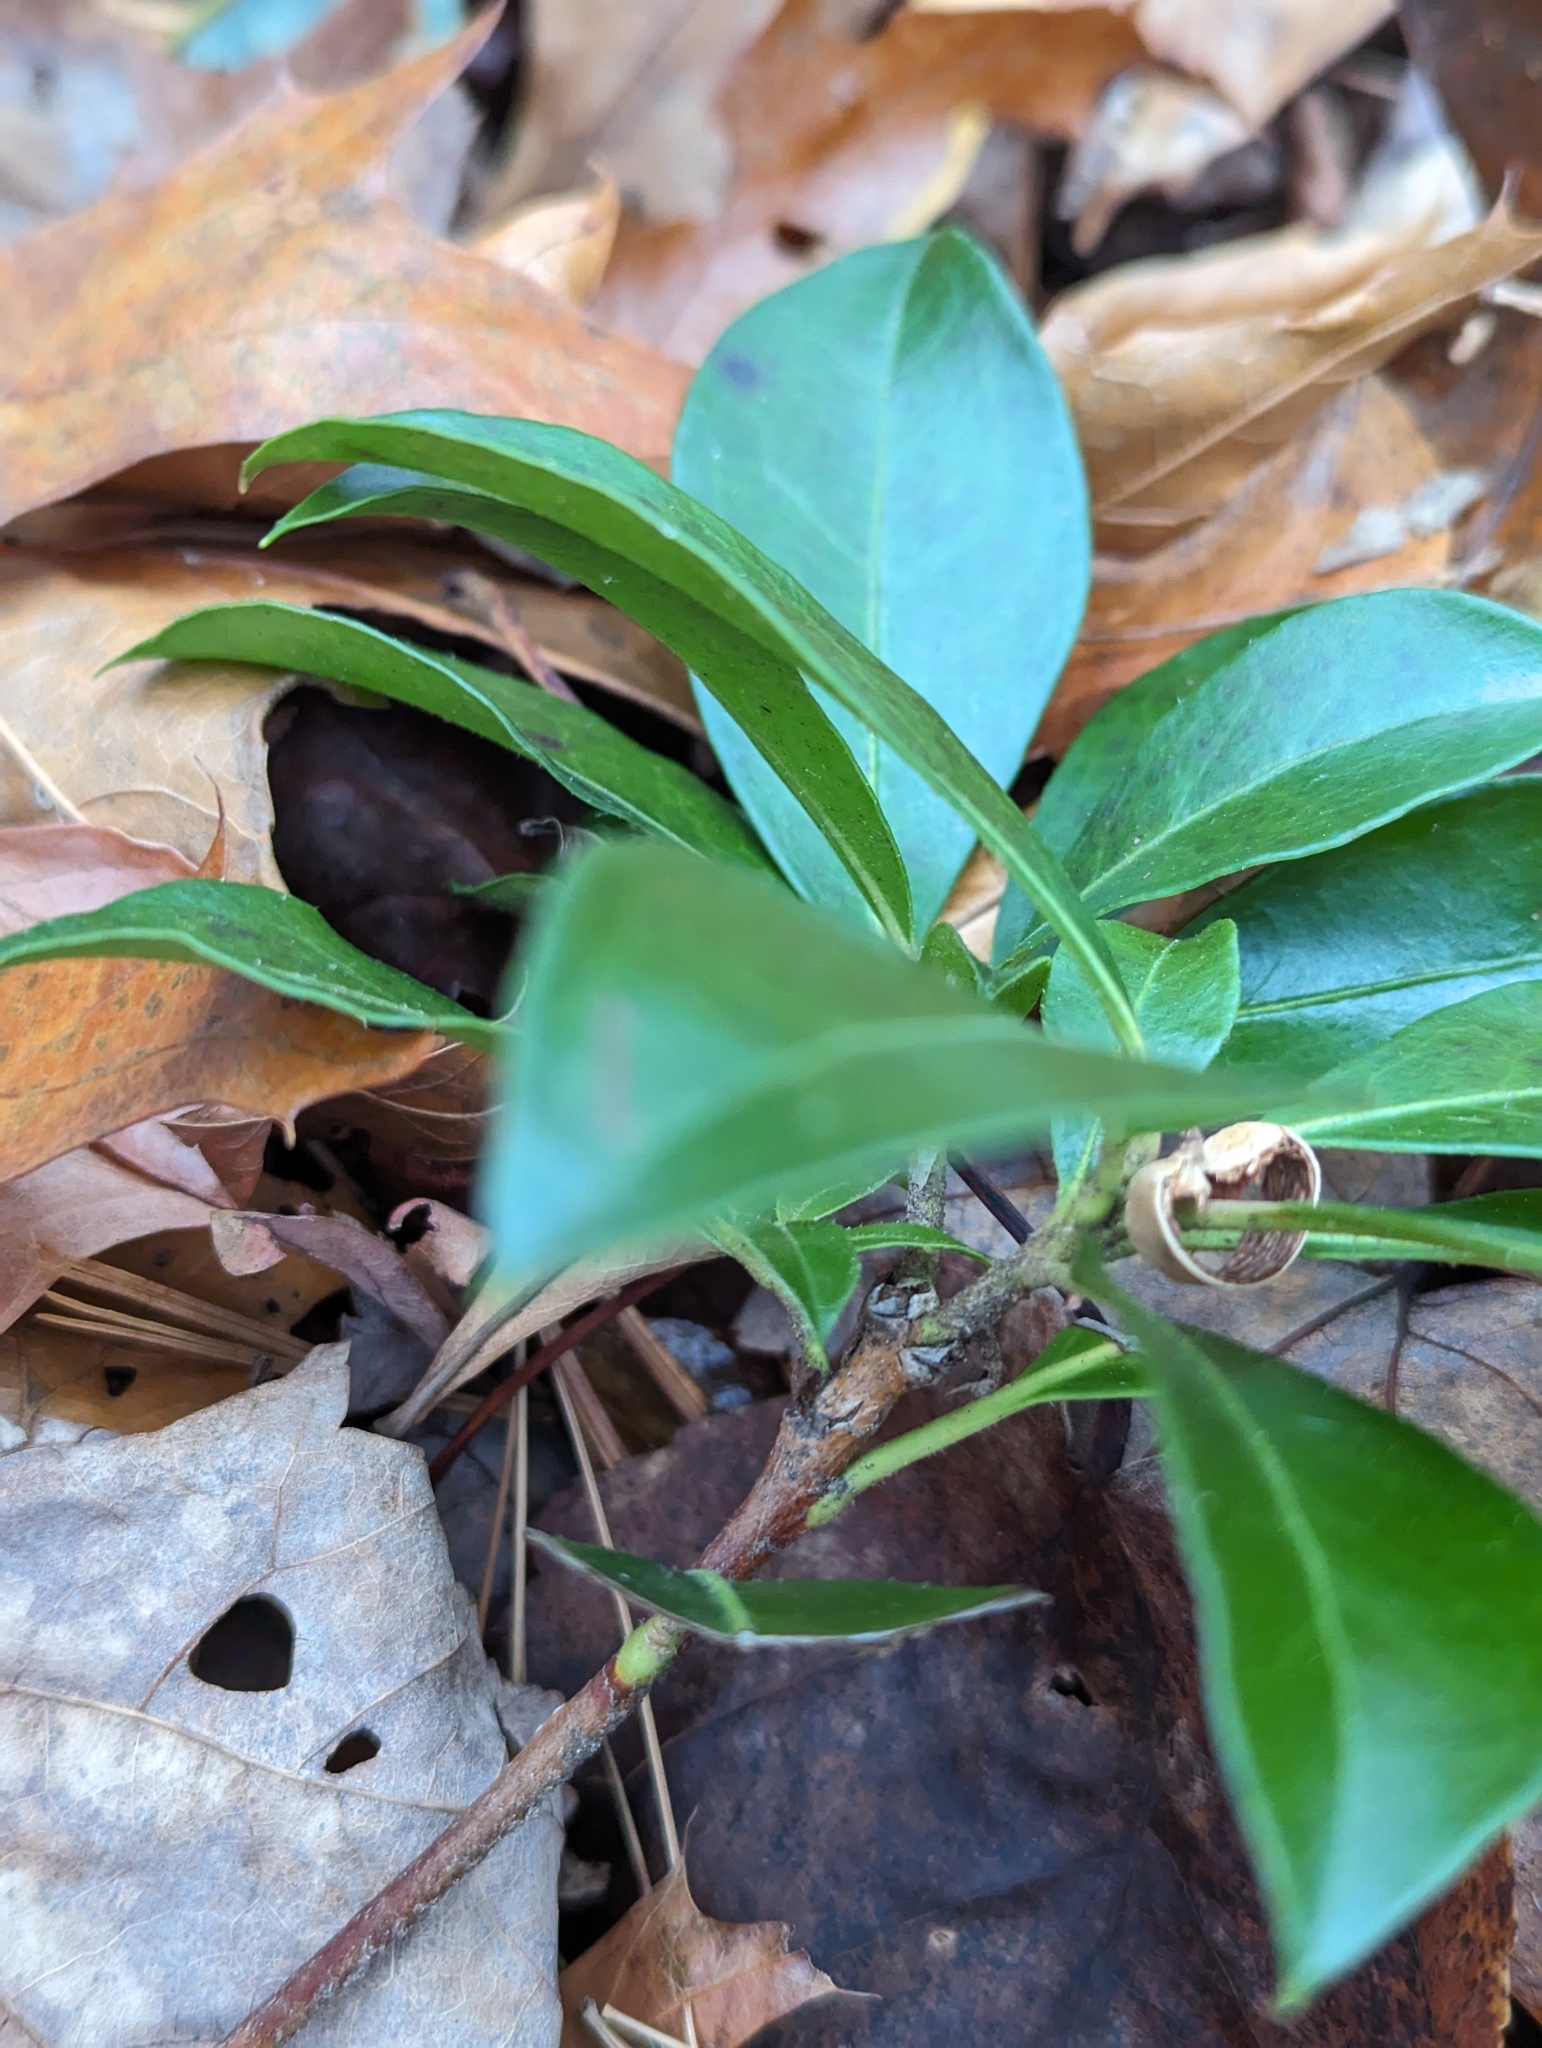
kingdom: Plantae
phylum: Tracheophyta
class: Magnoliopsida
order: Ericales
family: Ericaceae
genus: Kalmia
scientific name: Kalmia latifolia
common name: Mountain-laurel
